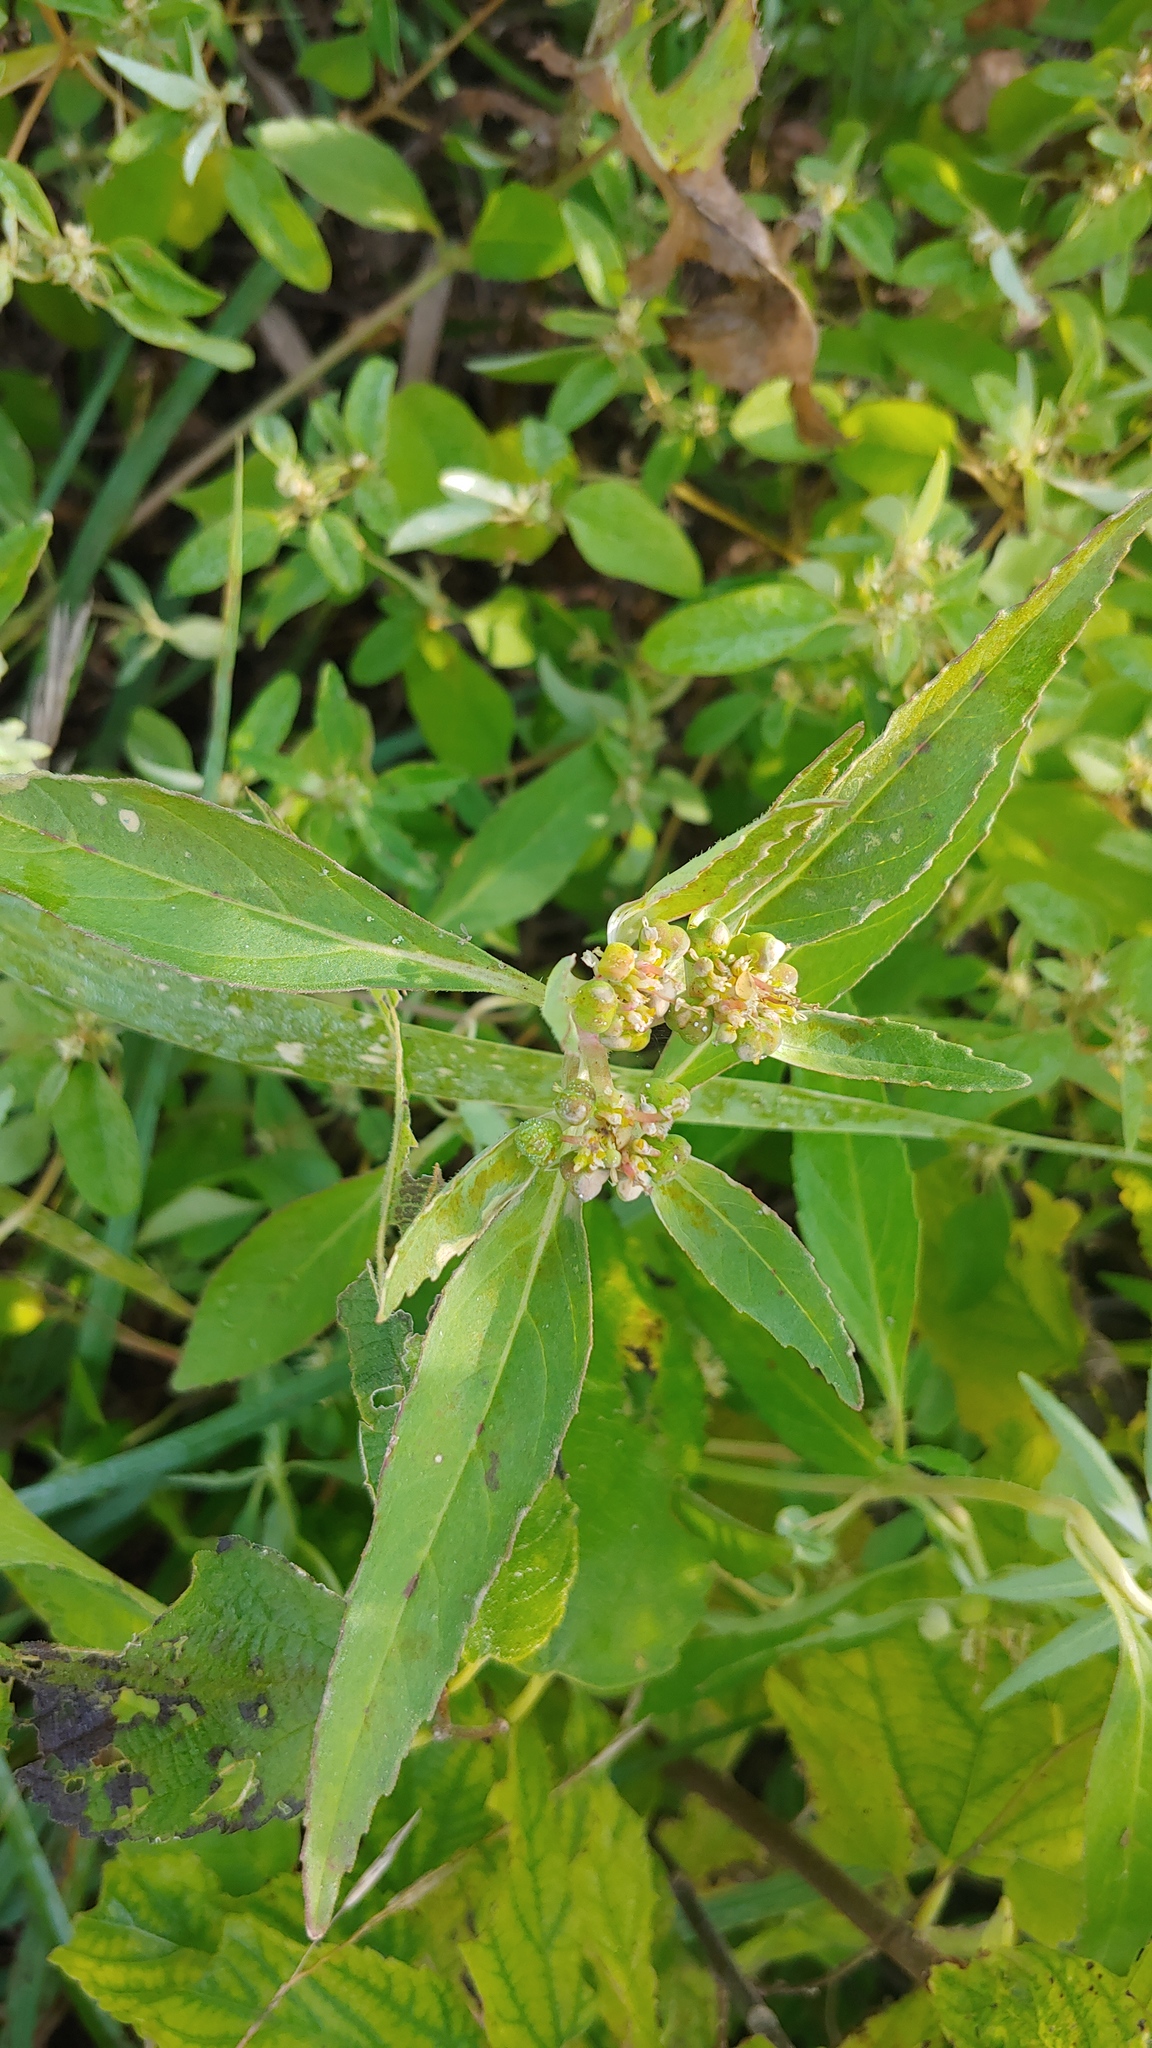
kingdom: Plantae
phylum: Tracheophyta
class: Magnoliopsida
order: Malpighiales
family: Euphorbiaceae
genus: Euphorbia
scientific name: Euphorbia davidii
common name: David's spurge
